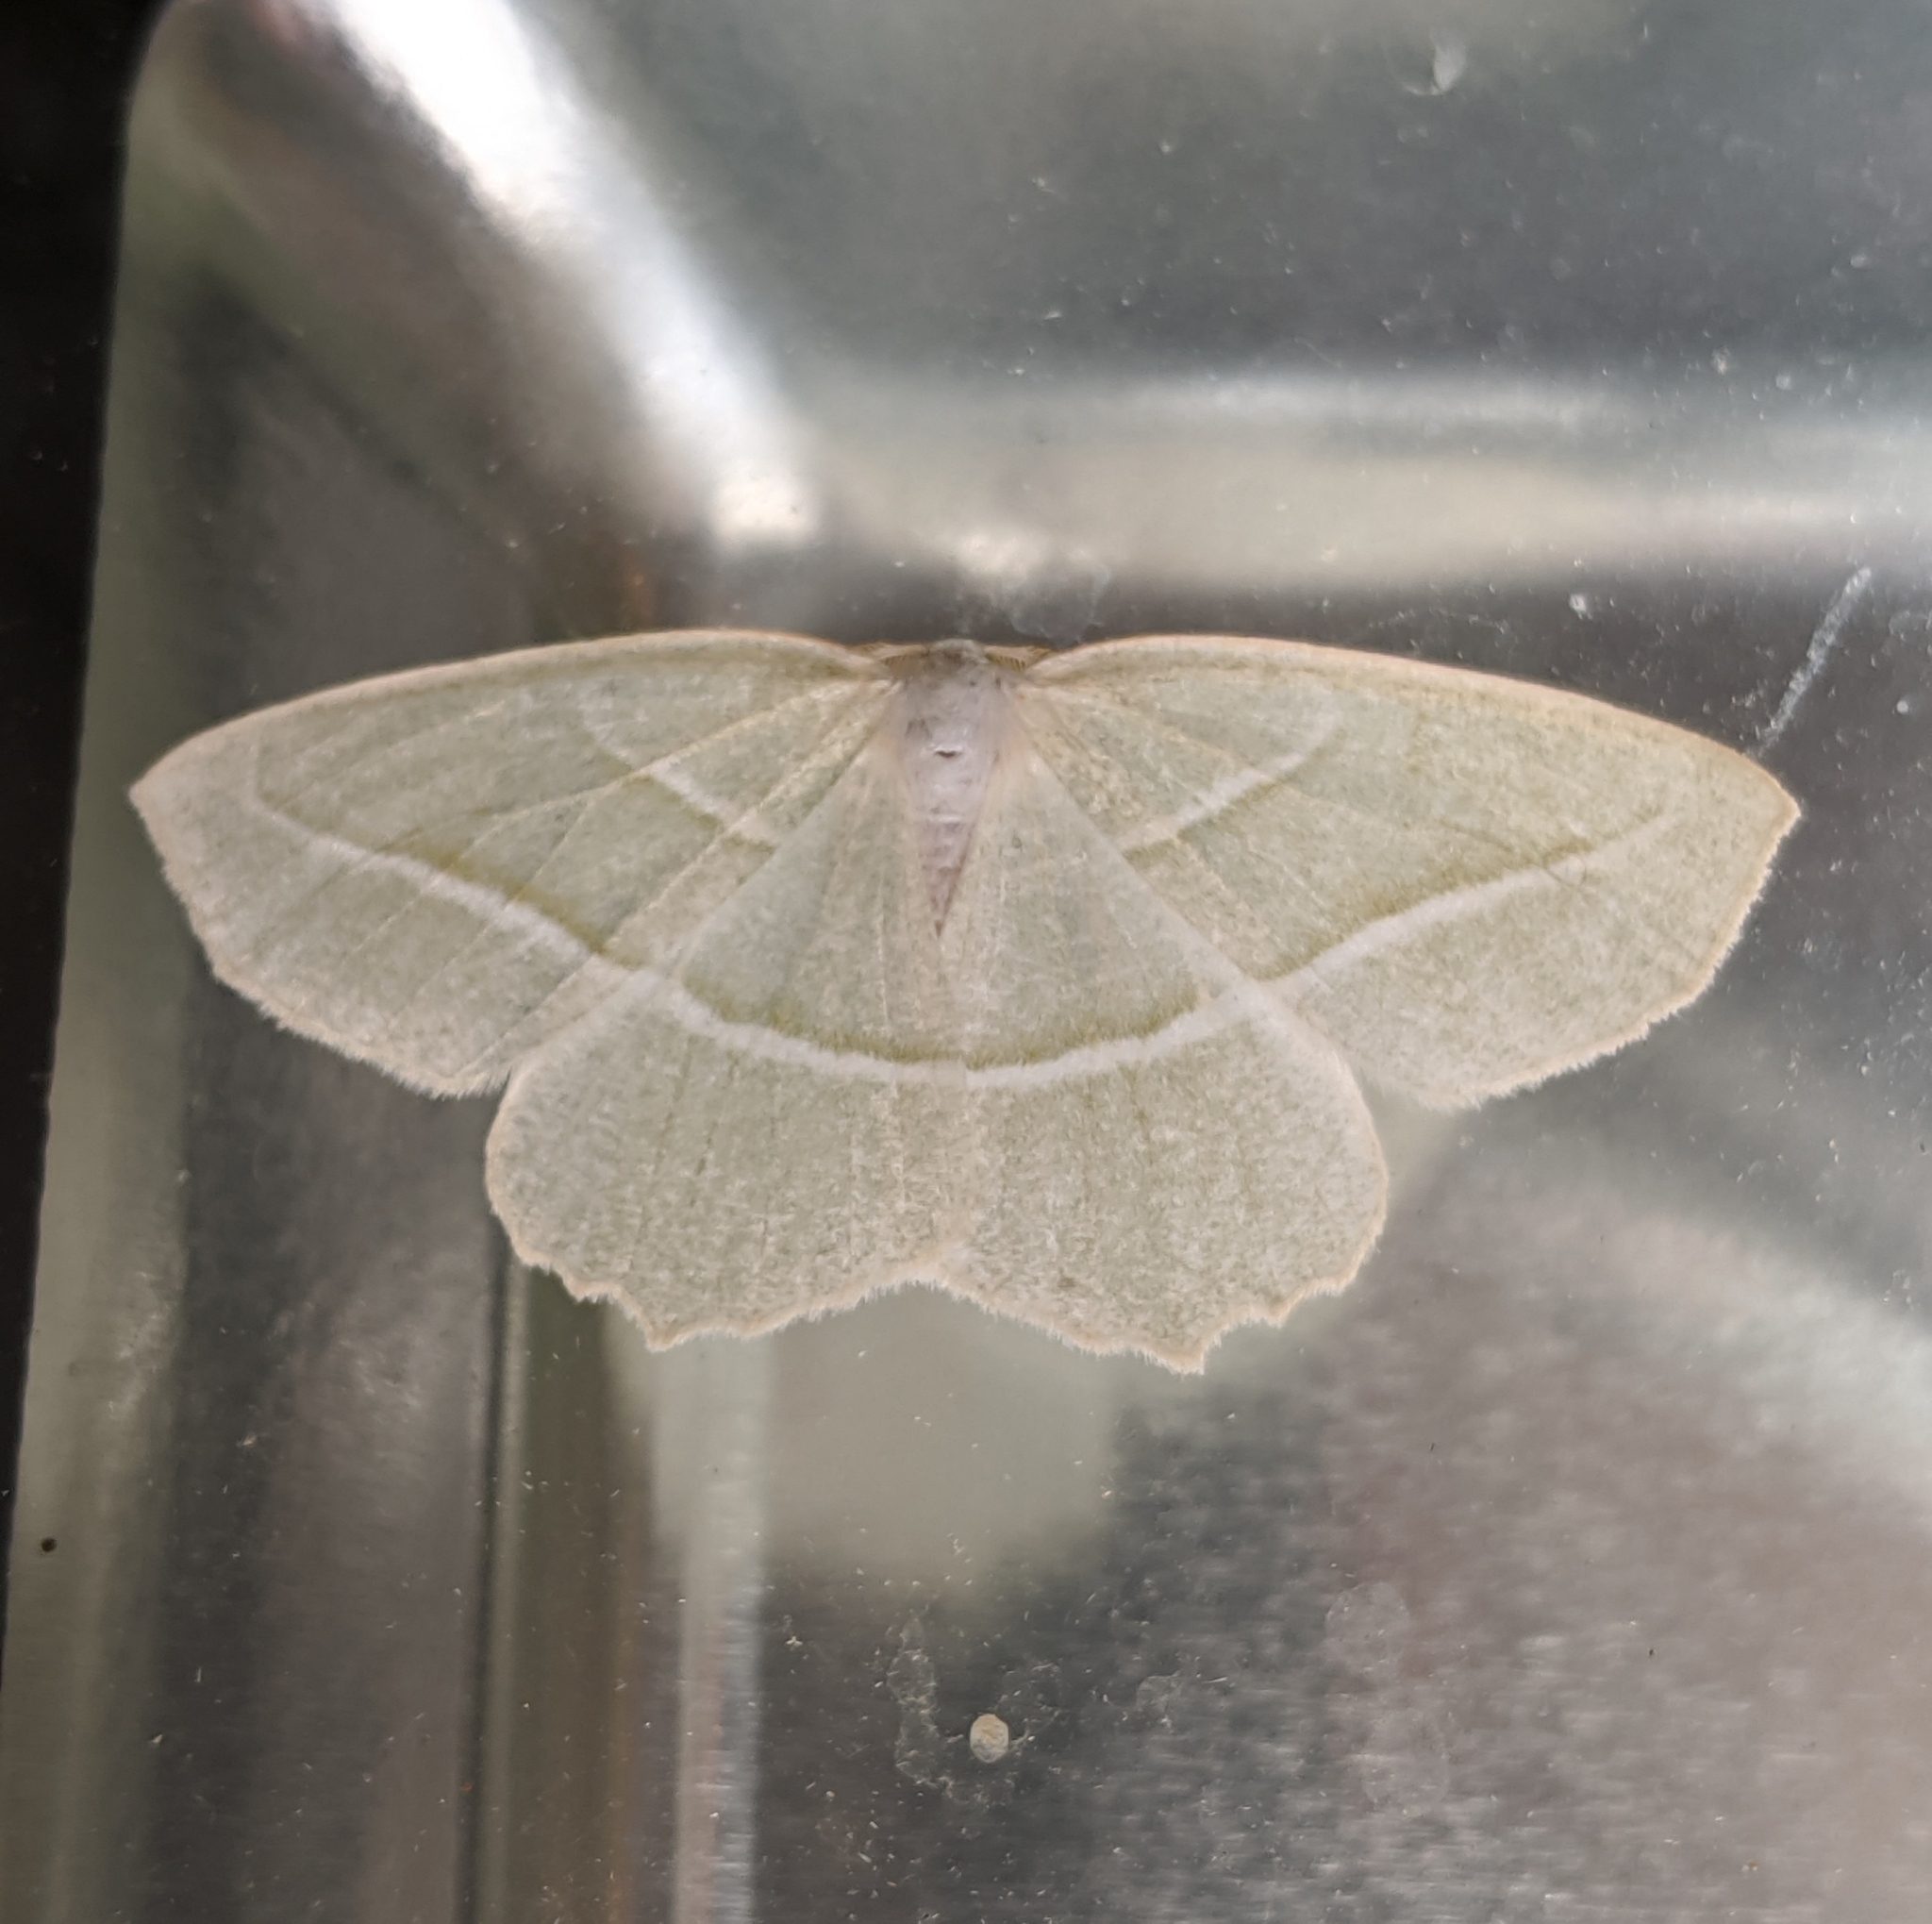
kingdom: Animalia
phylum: Arthropoda
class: Insecta
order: Lepidoptera
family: Geometridae
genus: Campaea
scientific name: Campaea perlata
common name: Fringed looper
